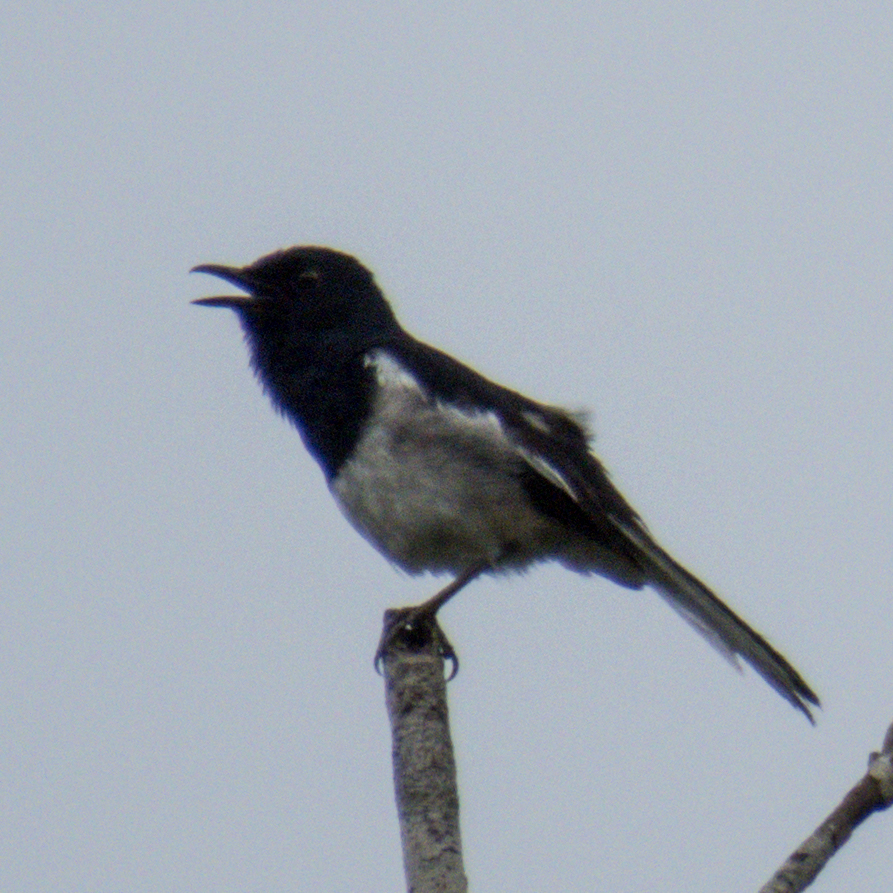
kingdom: Animalia
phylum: Chordata
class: Aves
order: Passeriformes
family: Muscicapidae
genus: Copsychus
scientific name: Copsychus saularis
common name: Oriental magpie-robin
